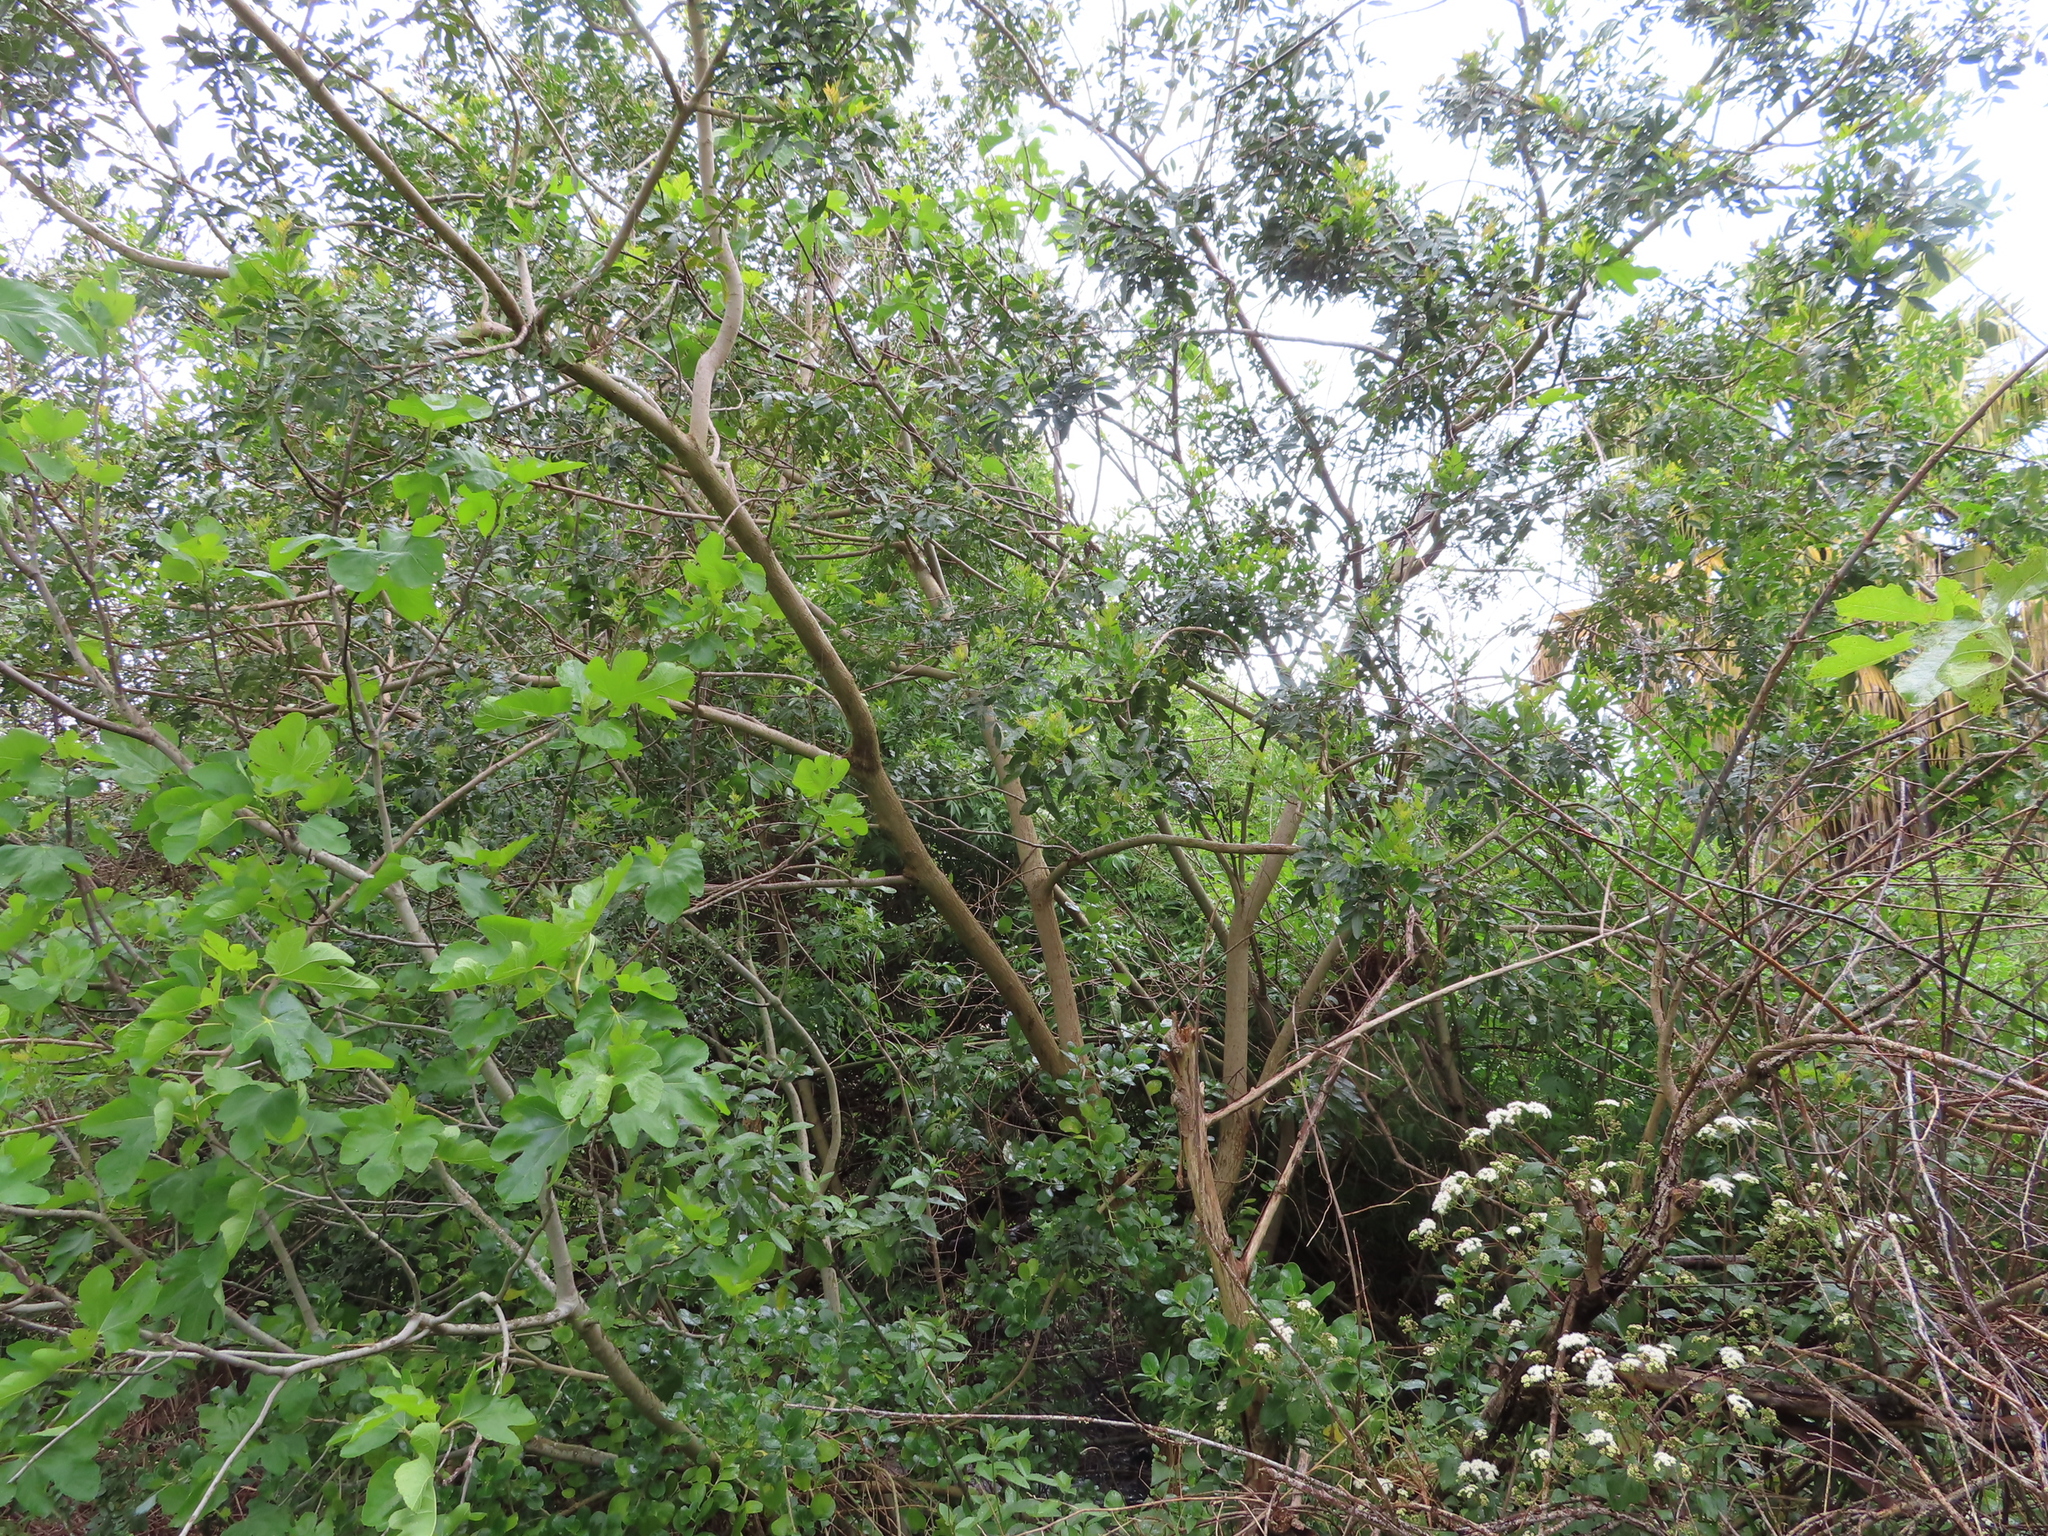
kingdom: Plantae
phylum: Tracheophyta
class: Magnoliopsida
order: Sapindales
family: Anacardiaceae
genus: Schinus
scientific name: Schinus terebinthifolia
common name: Brazilian peppertree
